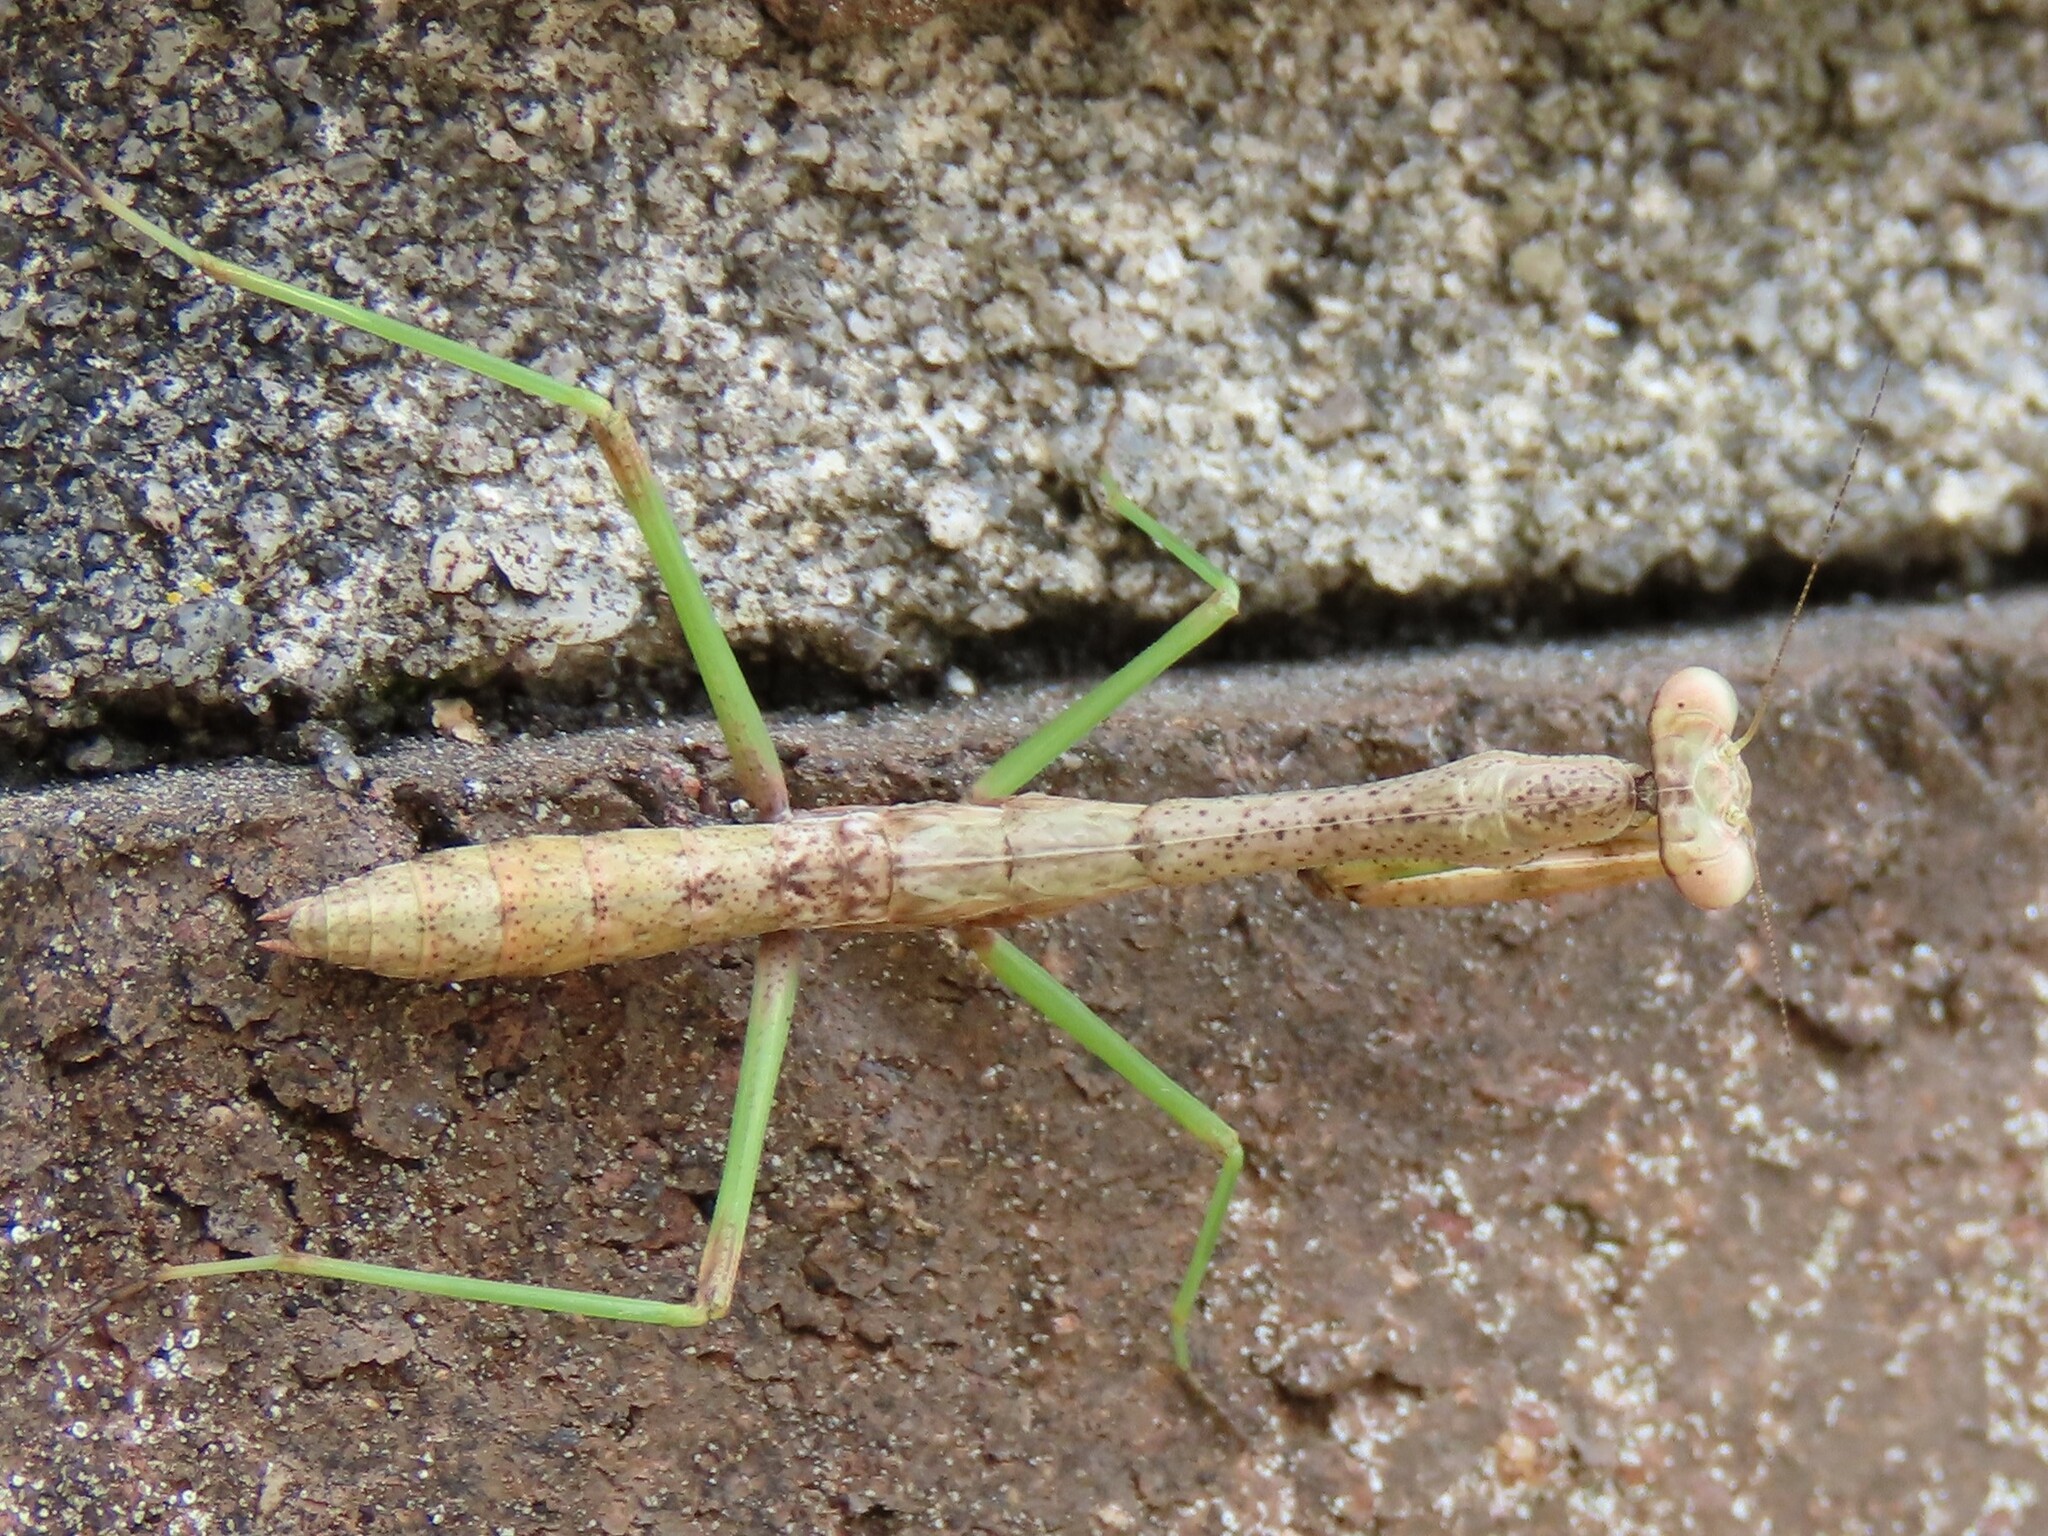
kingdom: Animalia
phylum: Arthropoda
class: Insecta
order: Mantodea
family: Mantidae
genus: Stagmomantis
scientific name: Stagmomantis carolina
